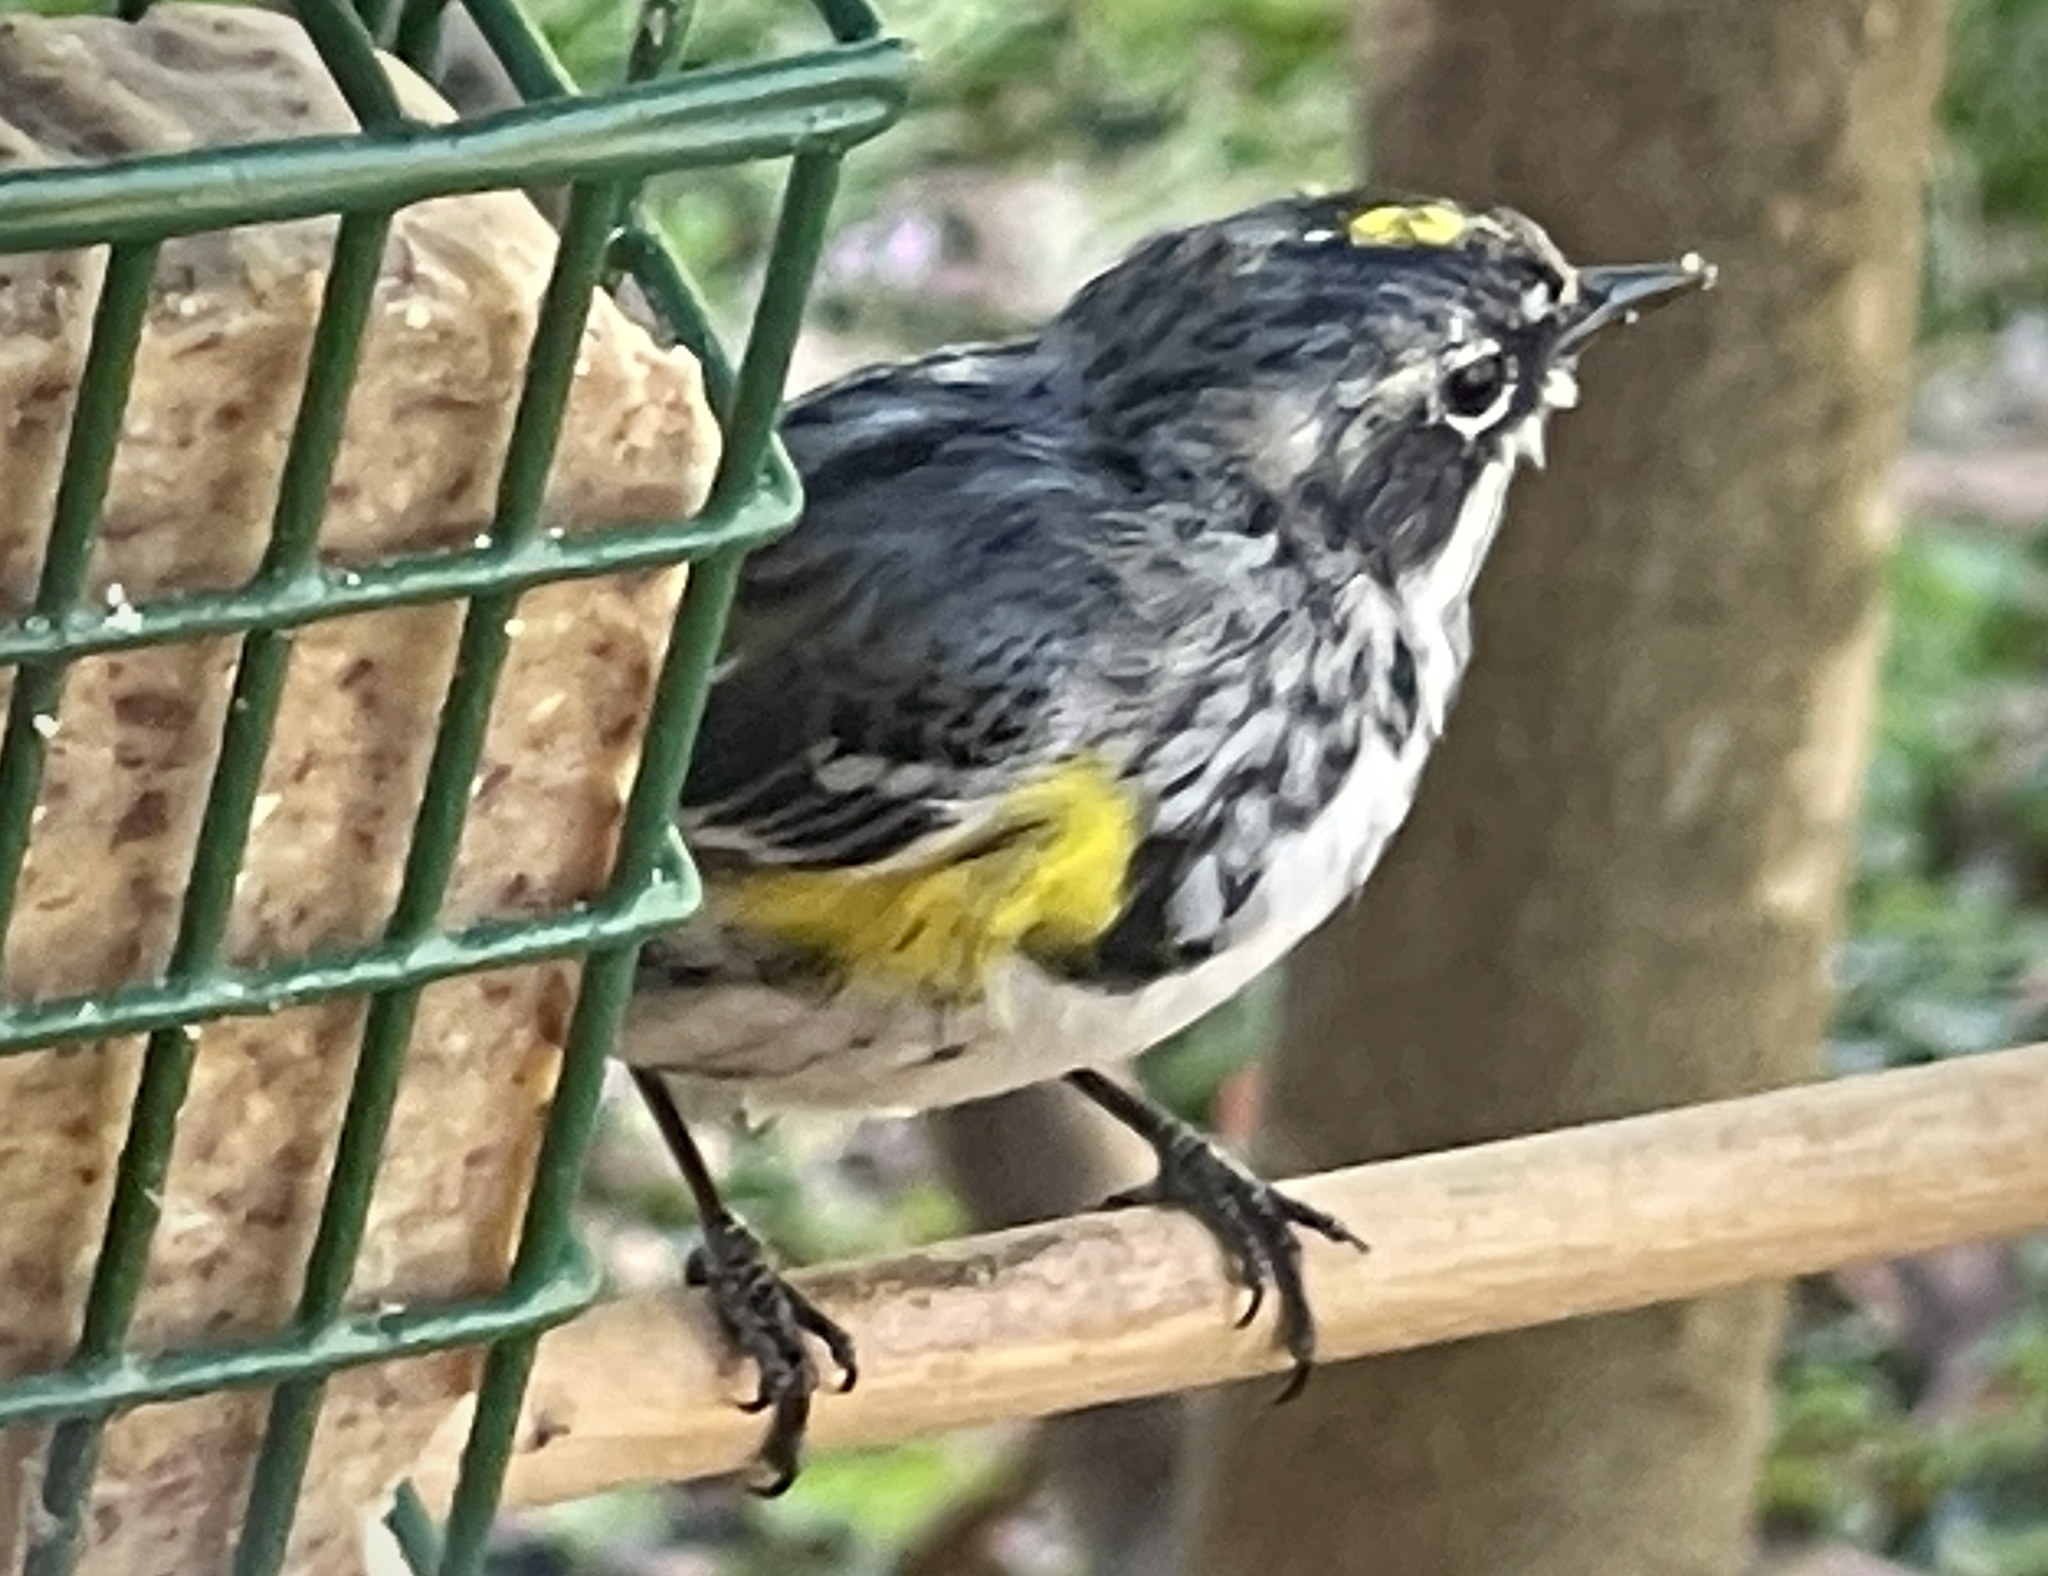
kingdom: Animalia
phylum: Chordata
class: Aves
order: Passeriformes
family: Parulidae
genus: Setophaga
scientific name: Setophaga coronata
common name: Myrtle warbler
